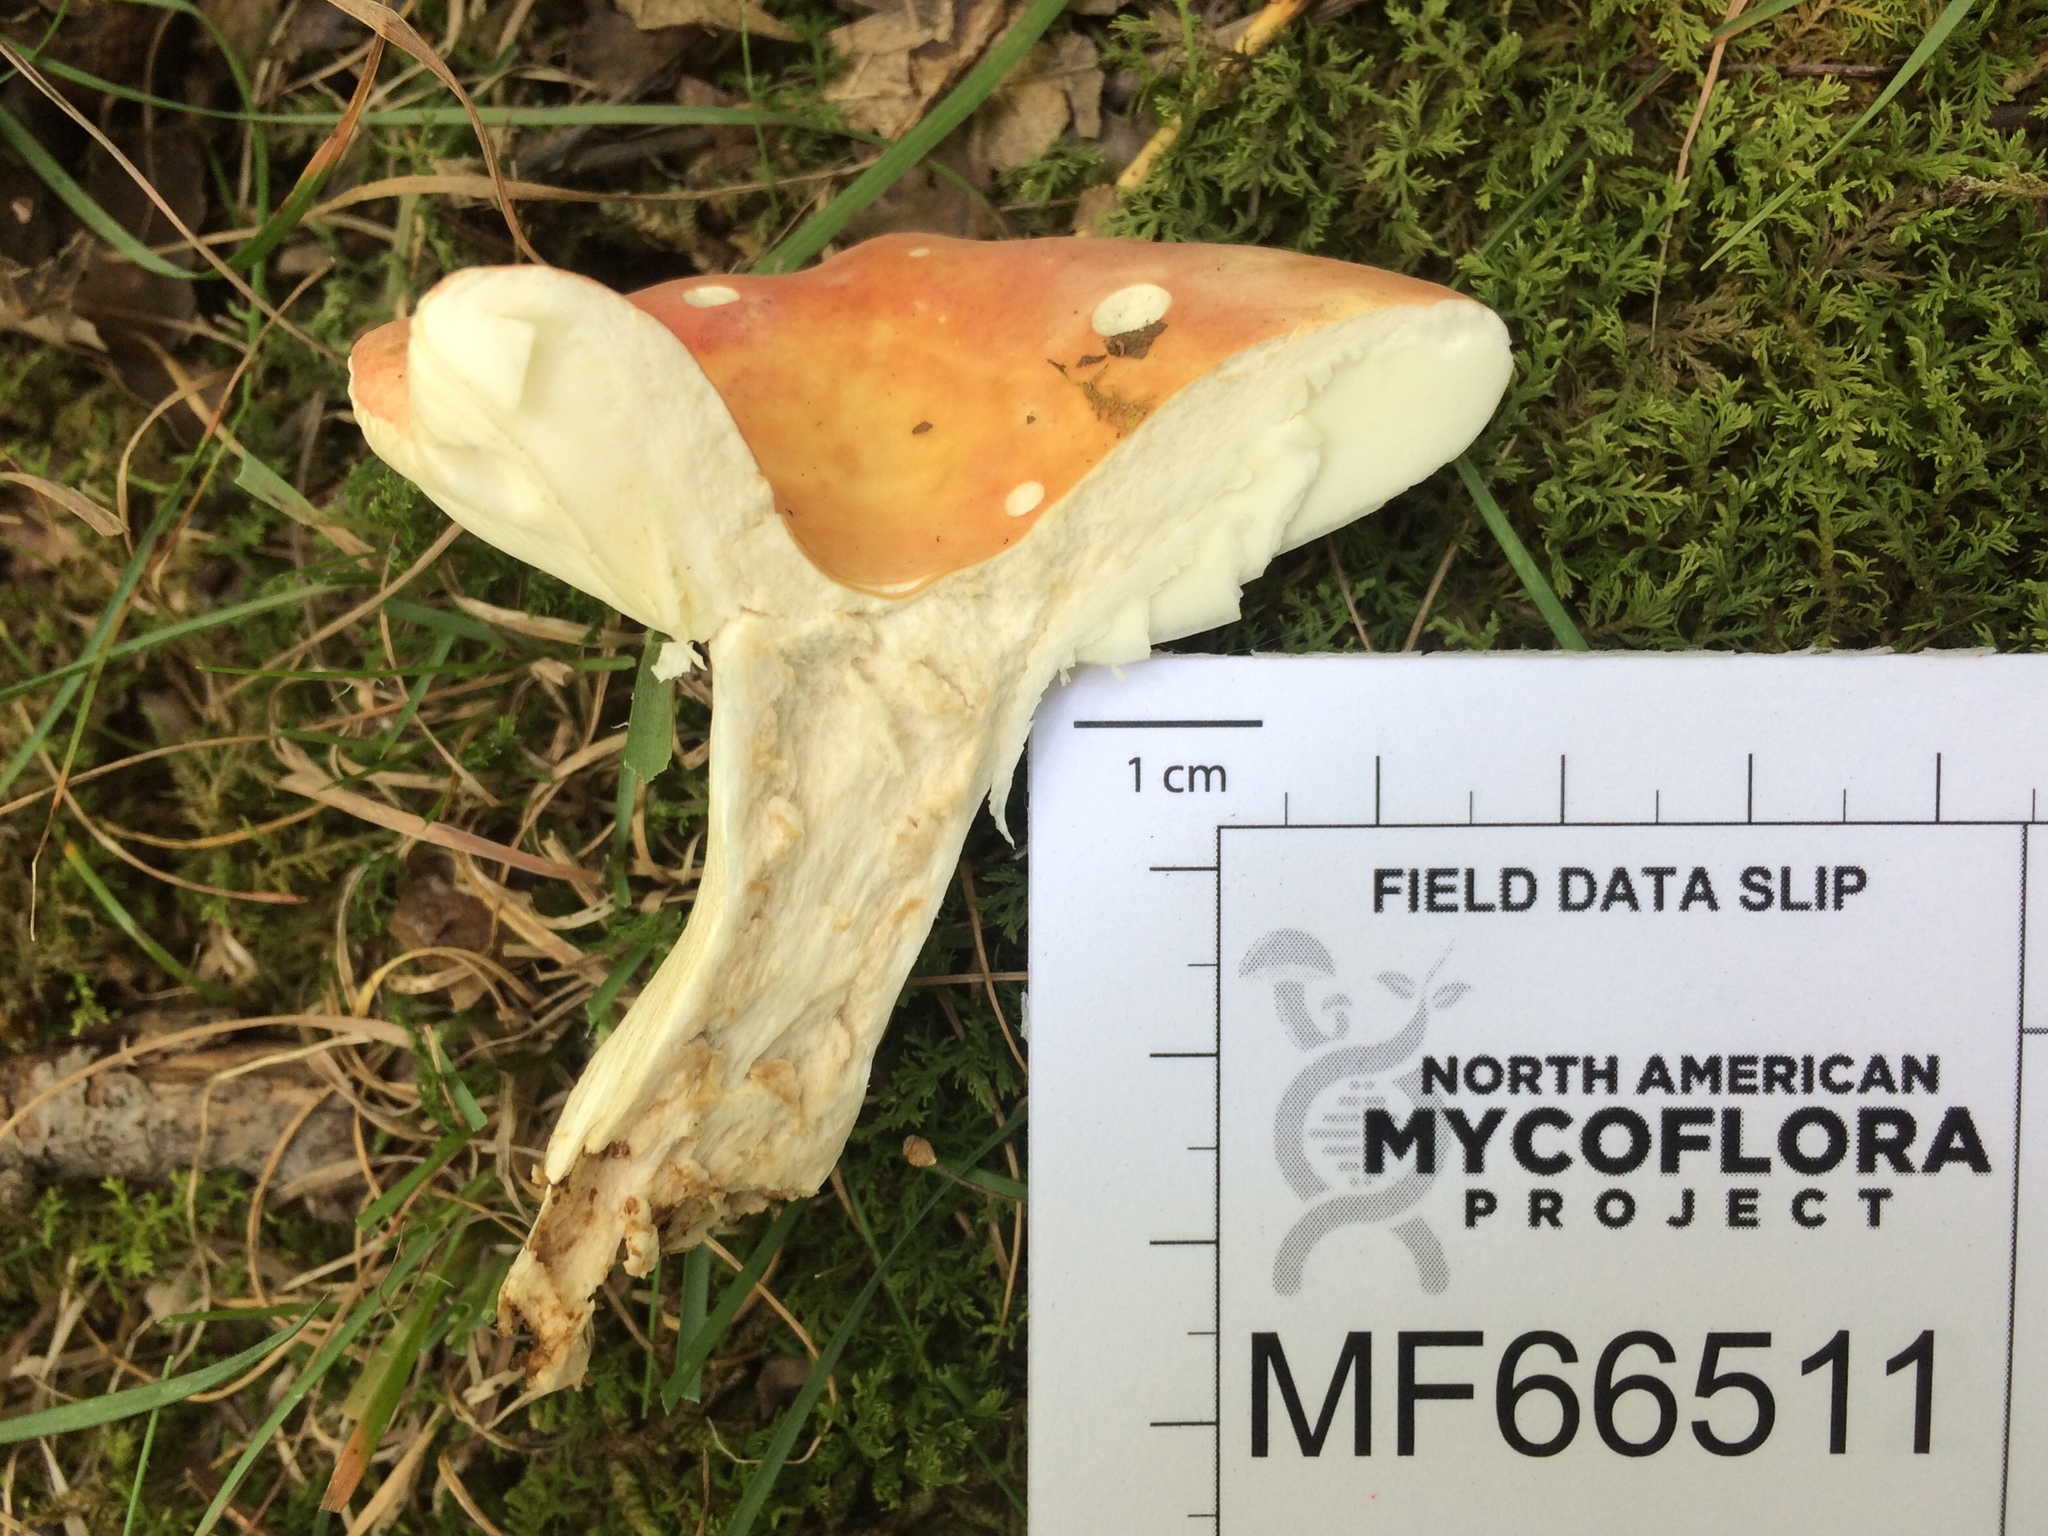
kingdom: Fungi
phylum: Basidiomycota
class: Agaricomycetes
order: Russulales
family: Russulaceae
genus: Russula
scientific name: Russula fucosa
